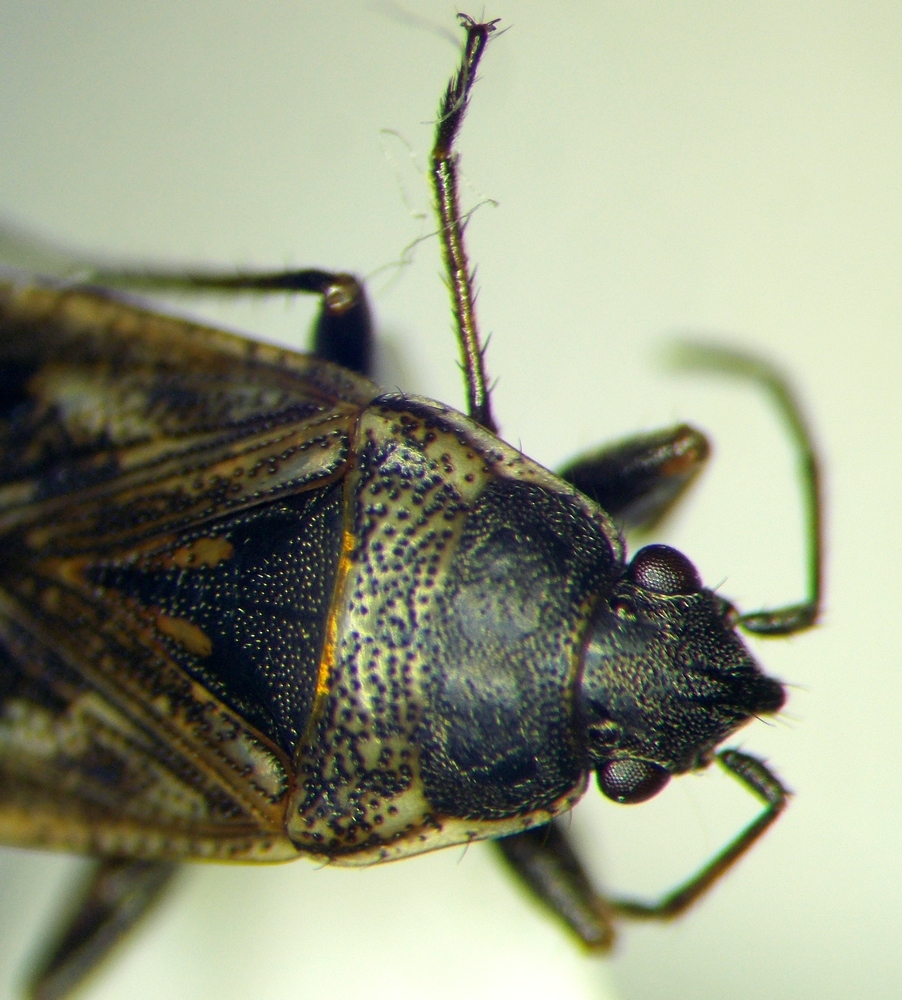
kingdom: Animalia
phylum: Arthropoda
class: Insecta
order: Hemiptera
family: Rhyparochromidae
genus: Sphragisticus
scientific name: Sphragisticus nebulosus
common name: Dirt-colored seed bug
